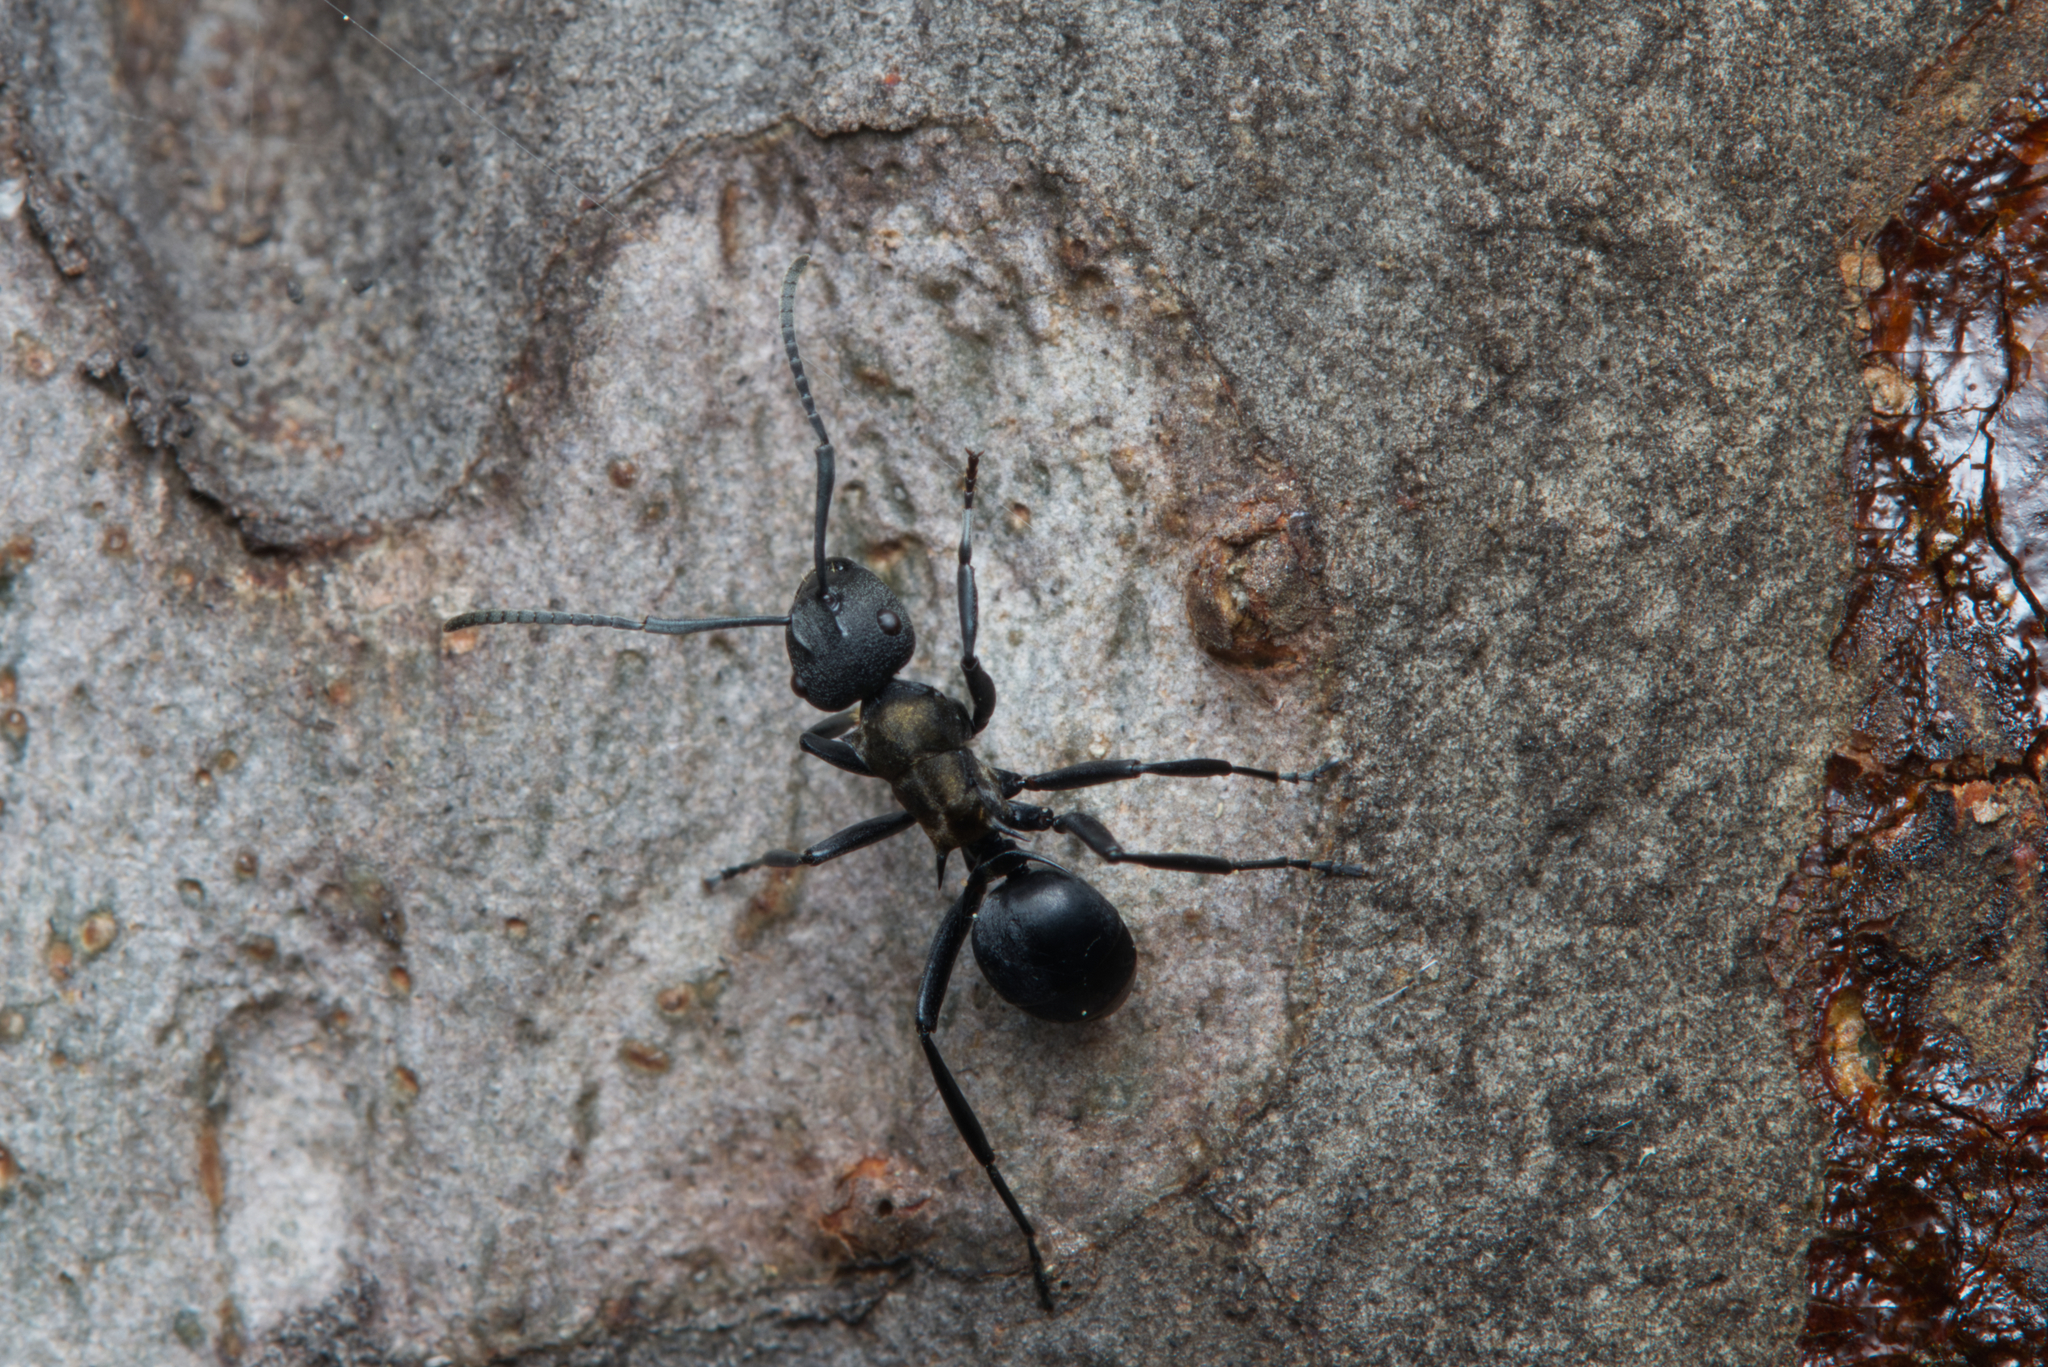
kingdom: Animalia
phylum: Arthropoda
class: Insecta
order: Hymenoptera
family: Formicidae
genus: Polyrhachis
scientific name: Polyrhachis ornata
